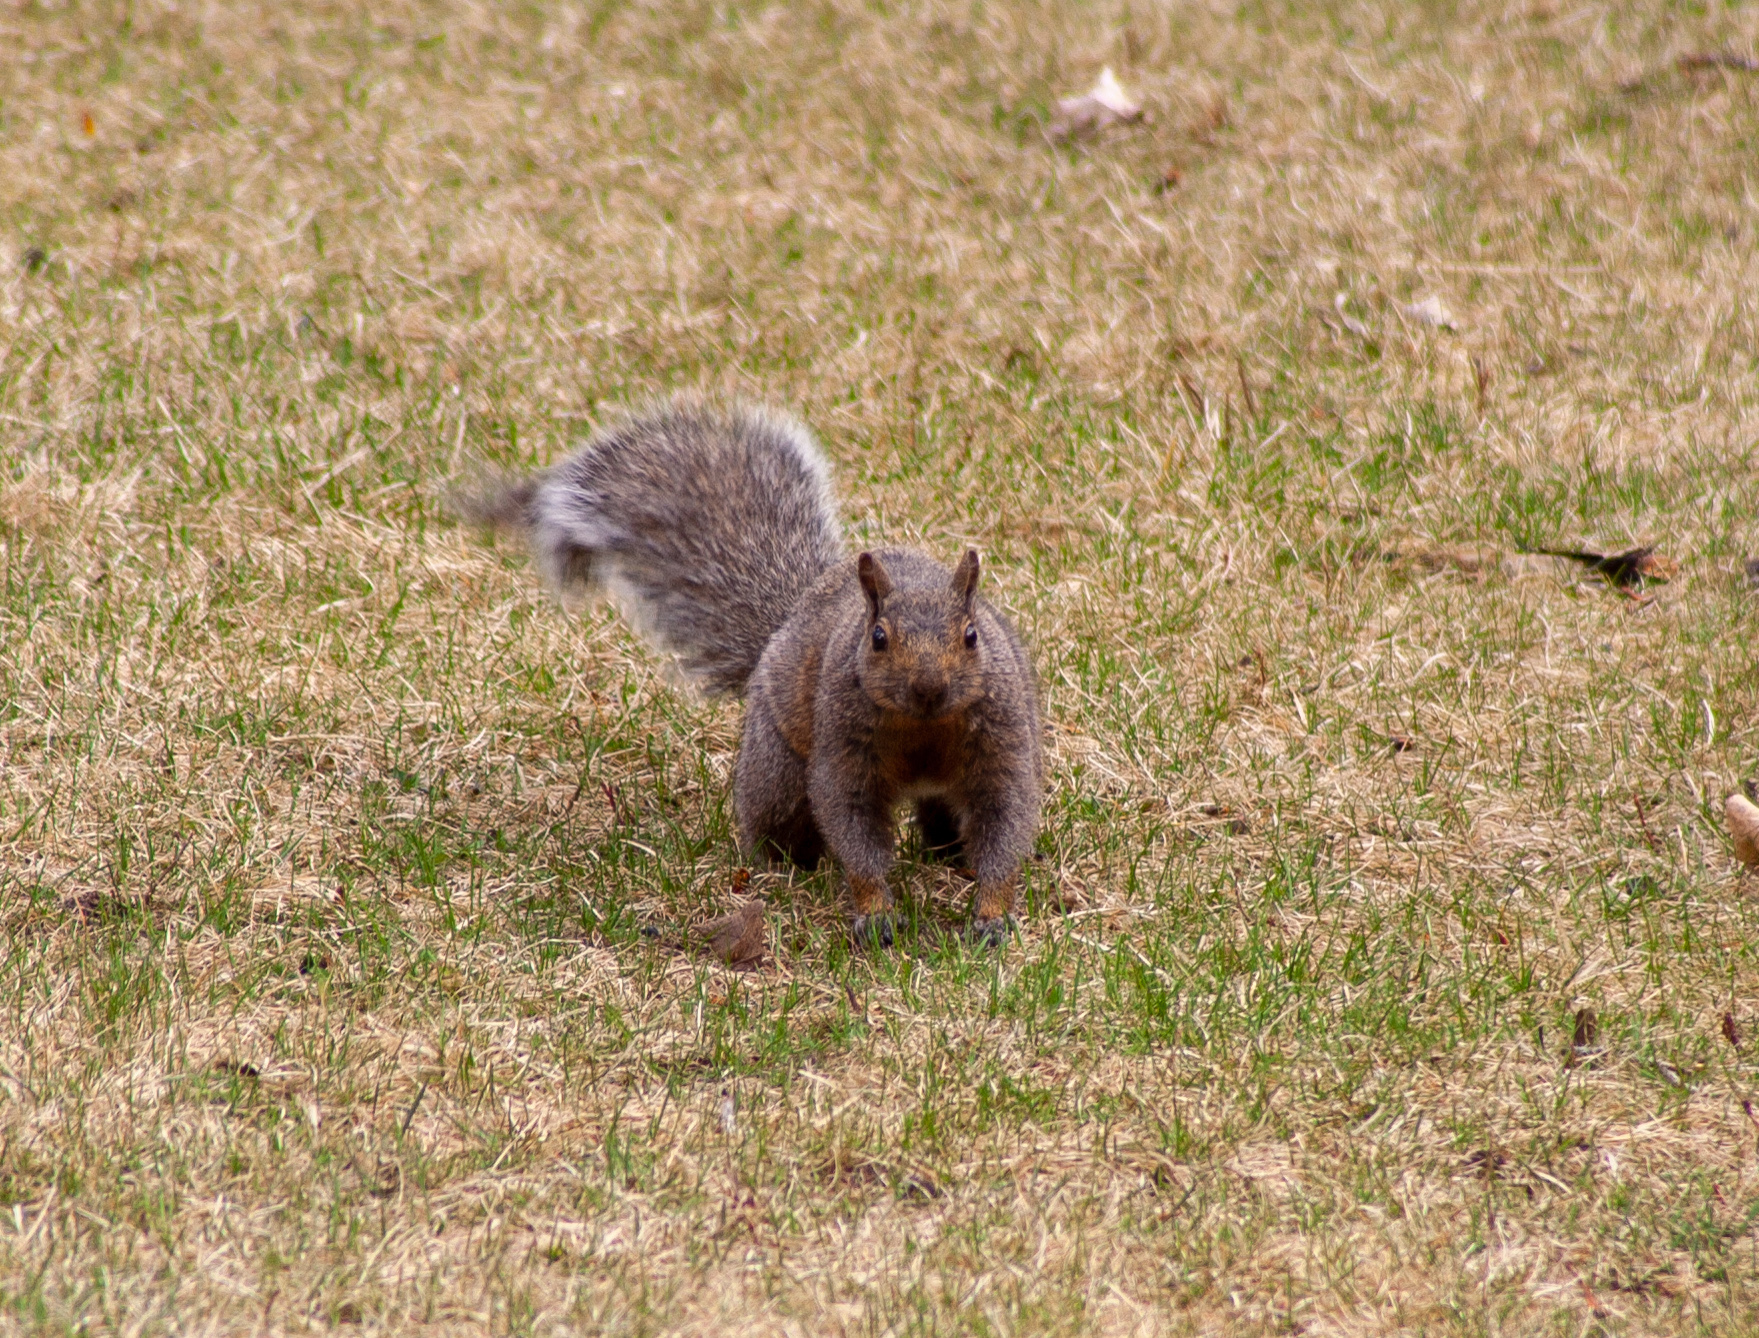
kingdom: Animalia
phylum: Chordata
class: Mammalia
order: Rodentia
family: Sciuridae
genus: Sciurus
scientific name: Sciurus carolinensis
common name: Eastern gray squirrel
